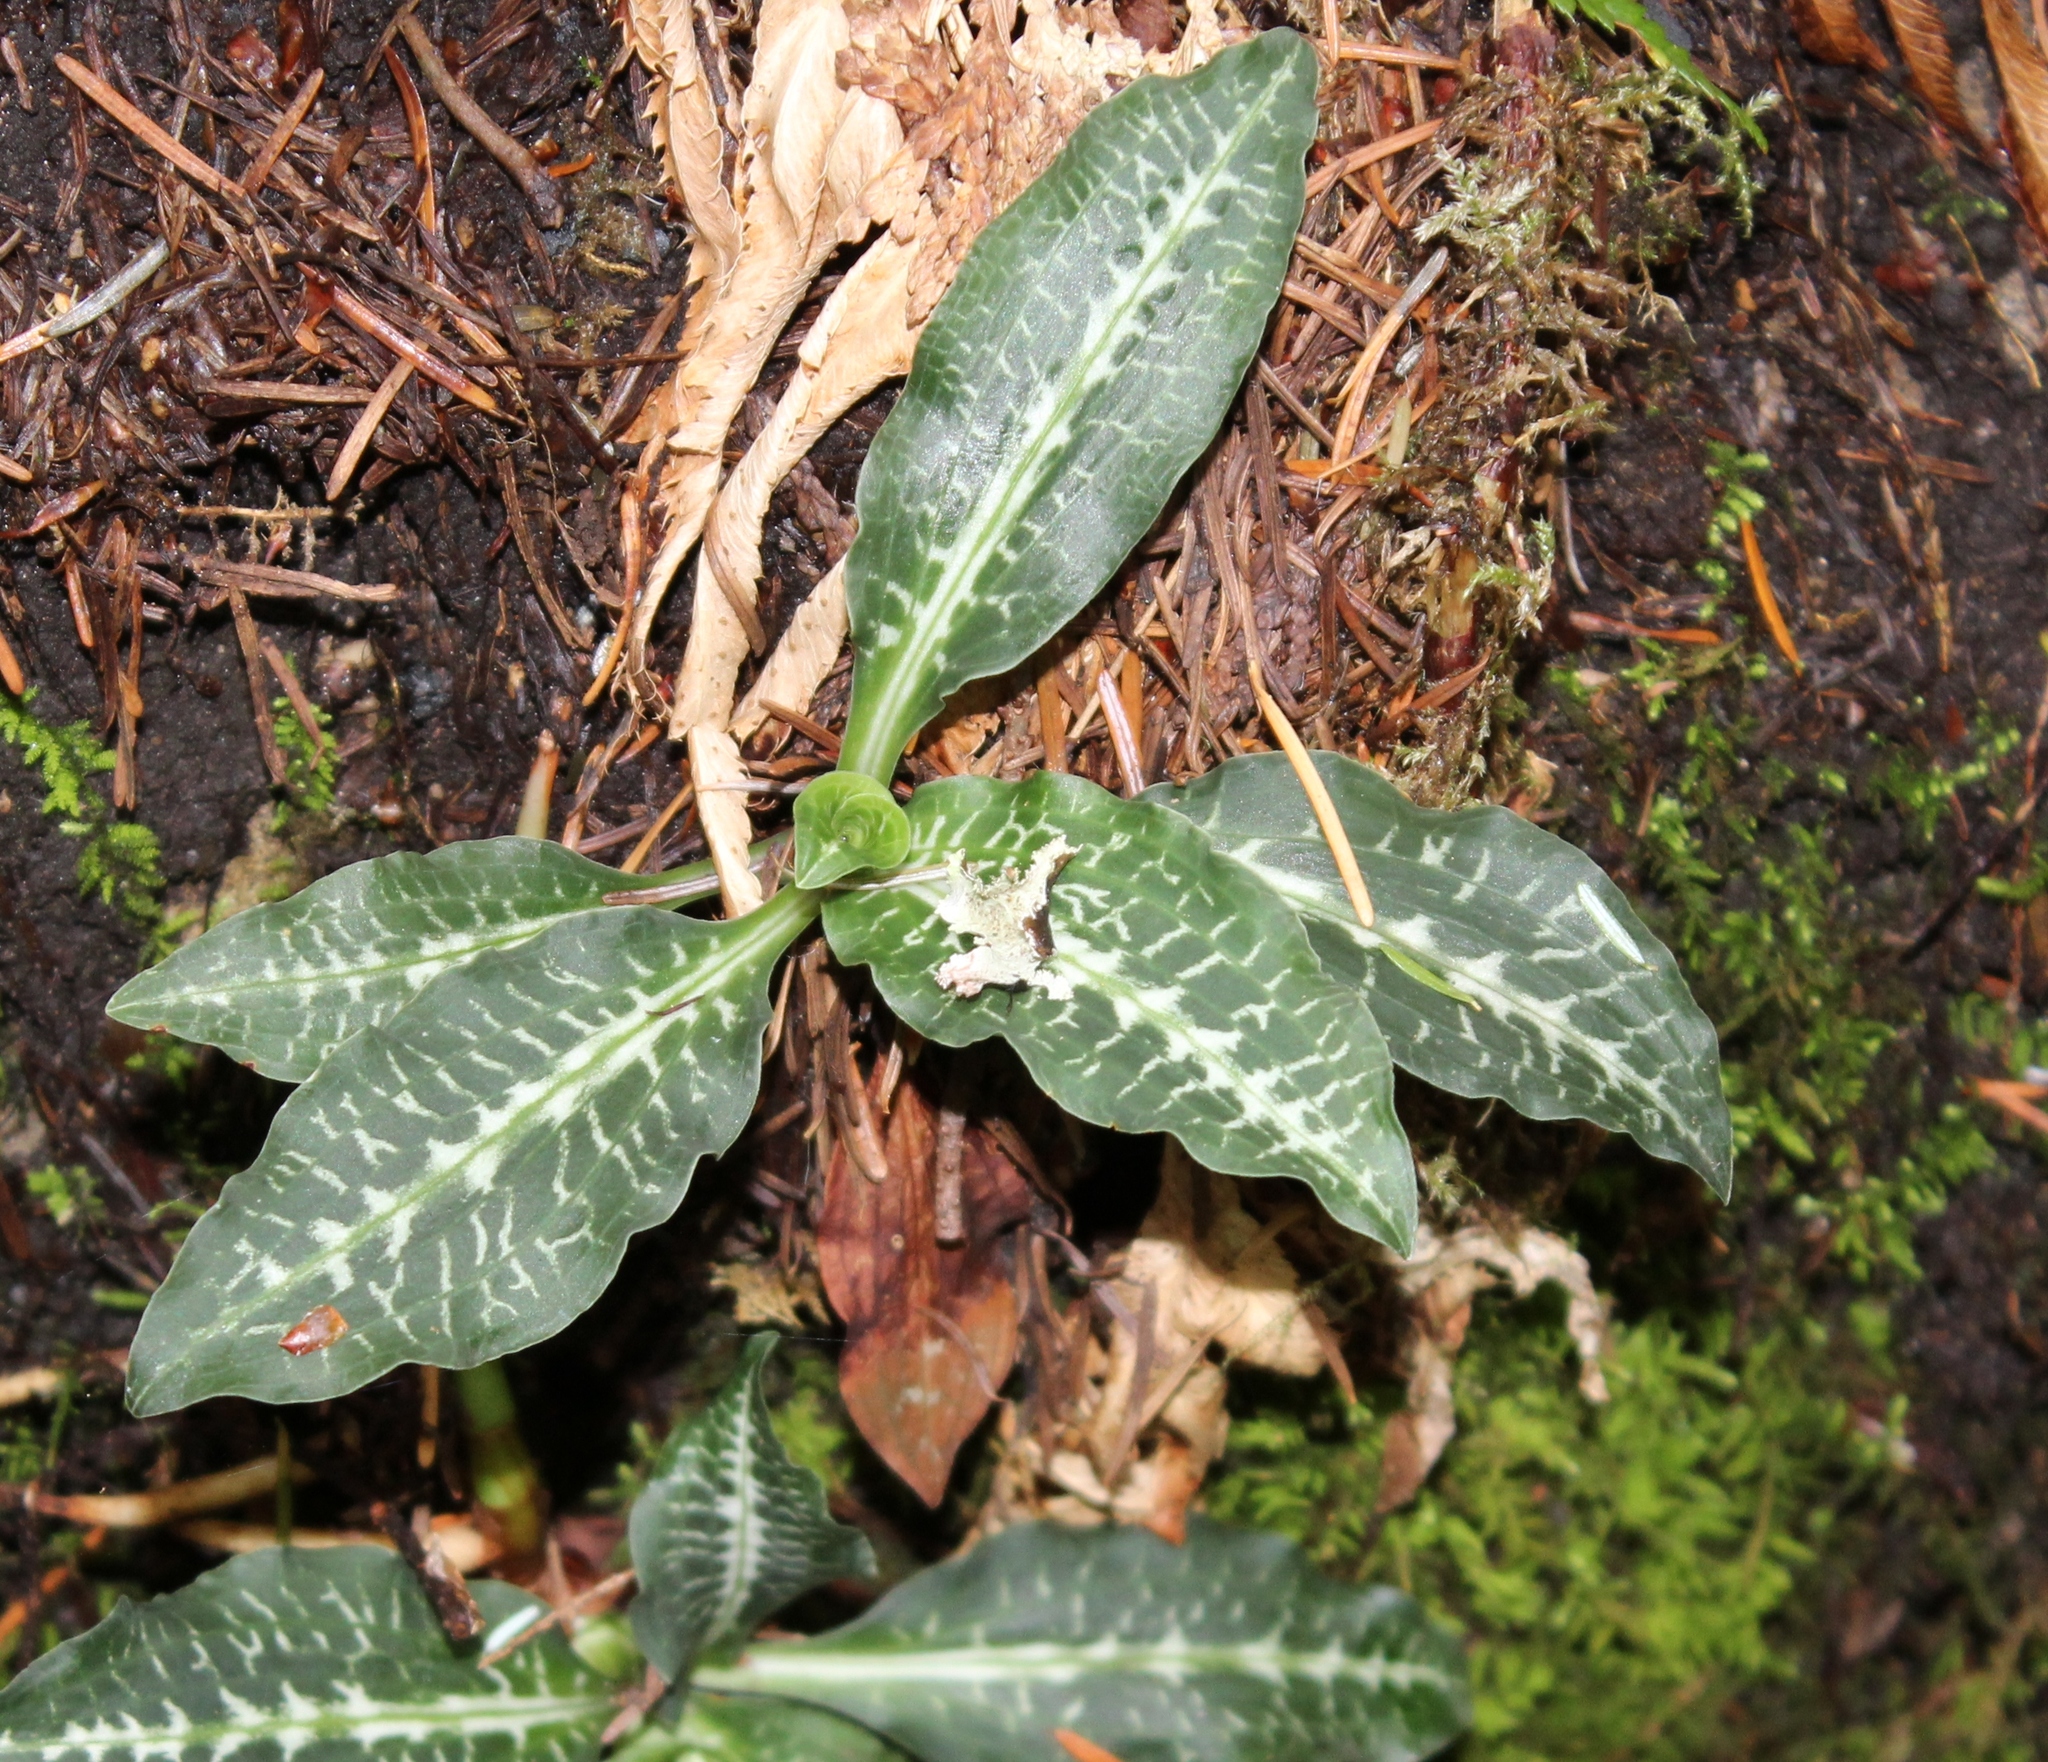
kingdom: Plantae
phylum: Tracheophyta
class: Liliopsida
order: Asparagales
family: Orchidaceae
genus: Goodyera
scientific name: Goodyera oblongifolia
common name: Giant rattlesnake-plantain
